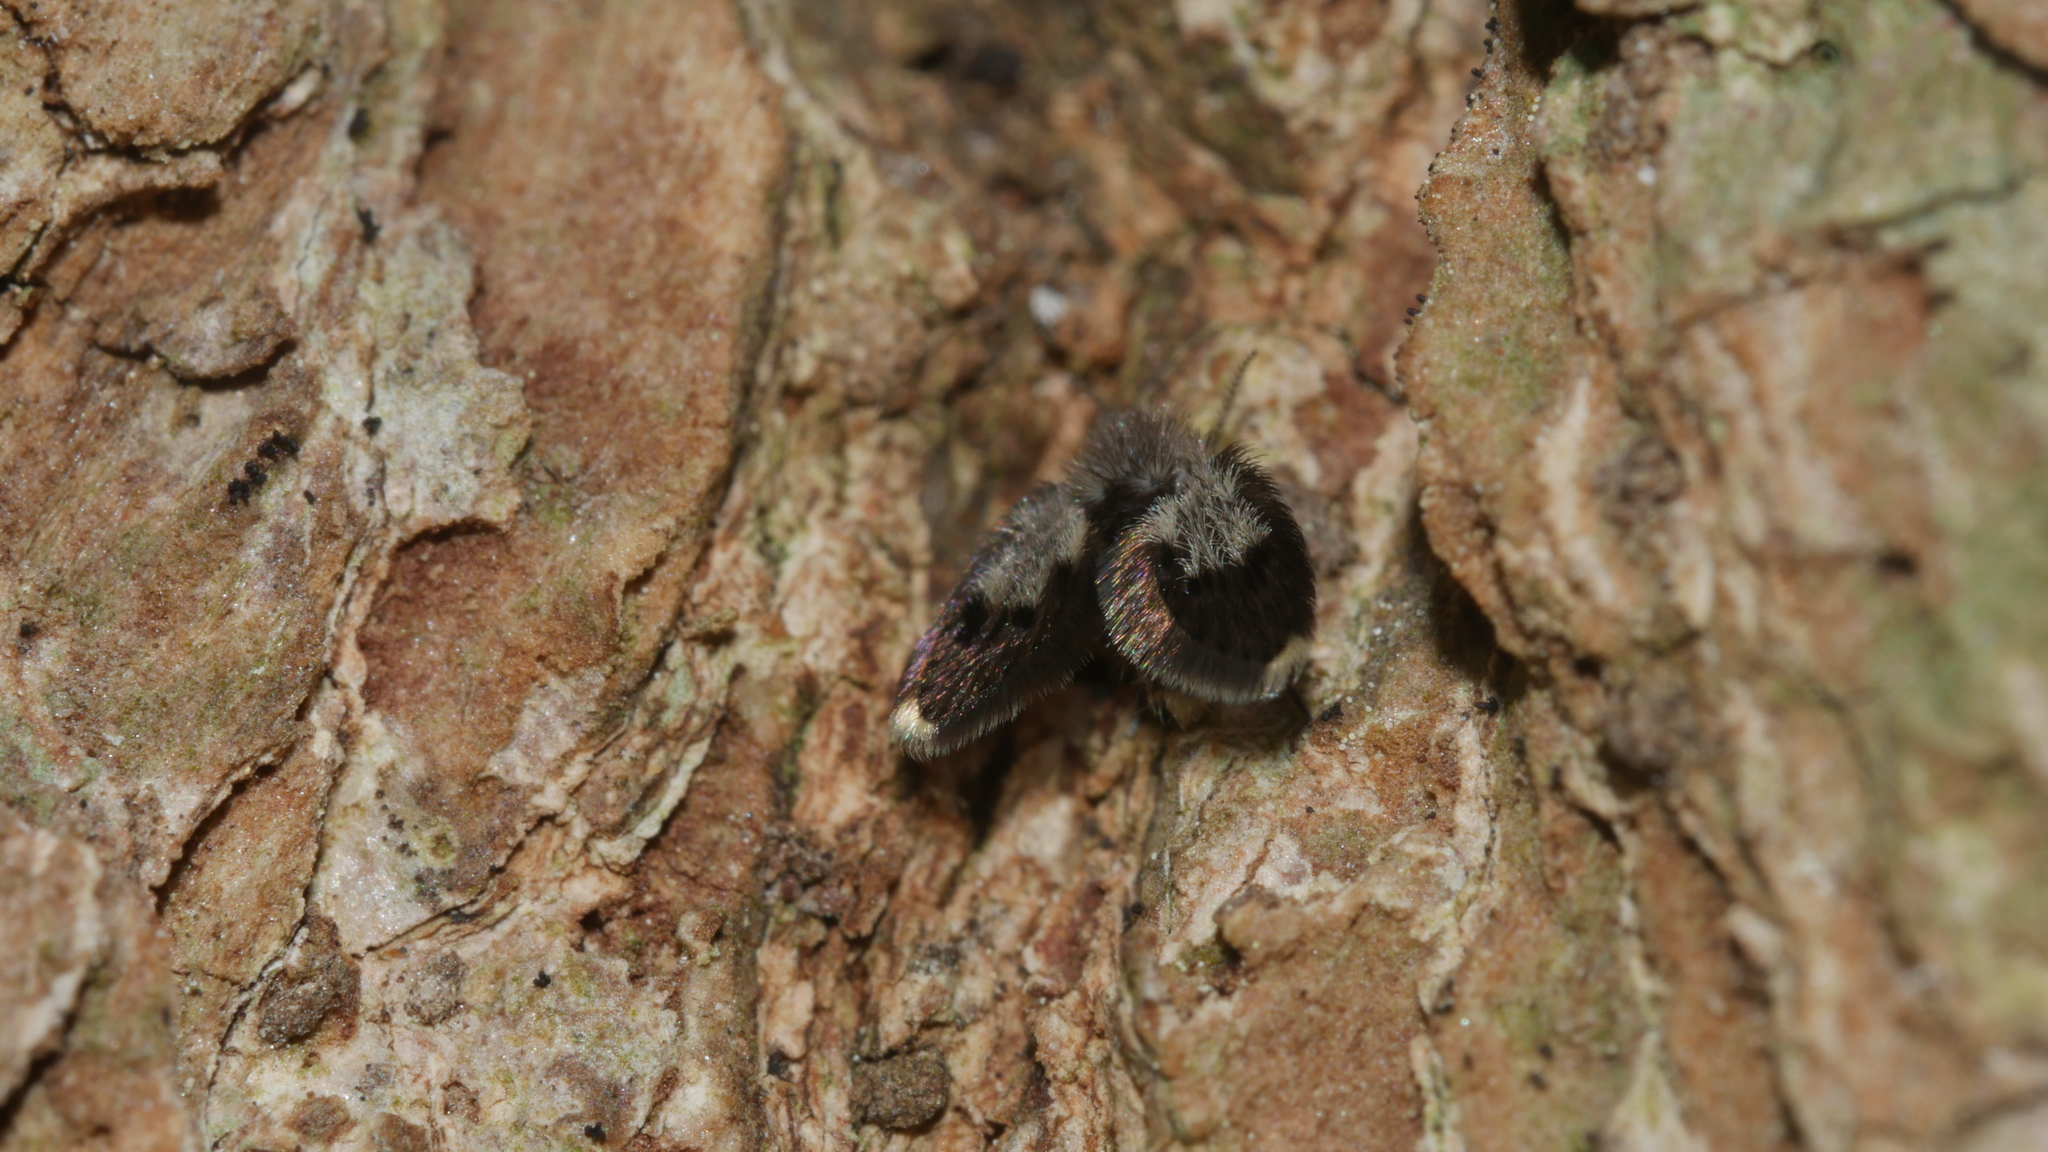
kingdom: Animalia
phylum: Arthropoda
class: Insecta
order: Diptera
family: Psychodidae
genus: Lepiseodina
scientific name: Lepiseodina
